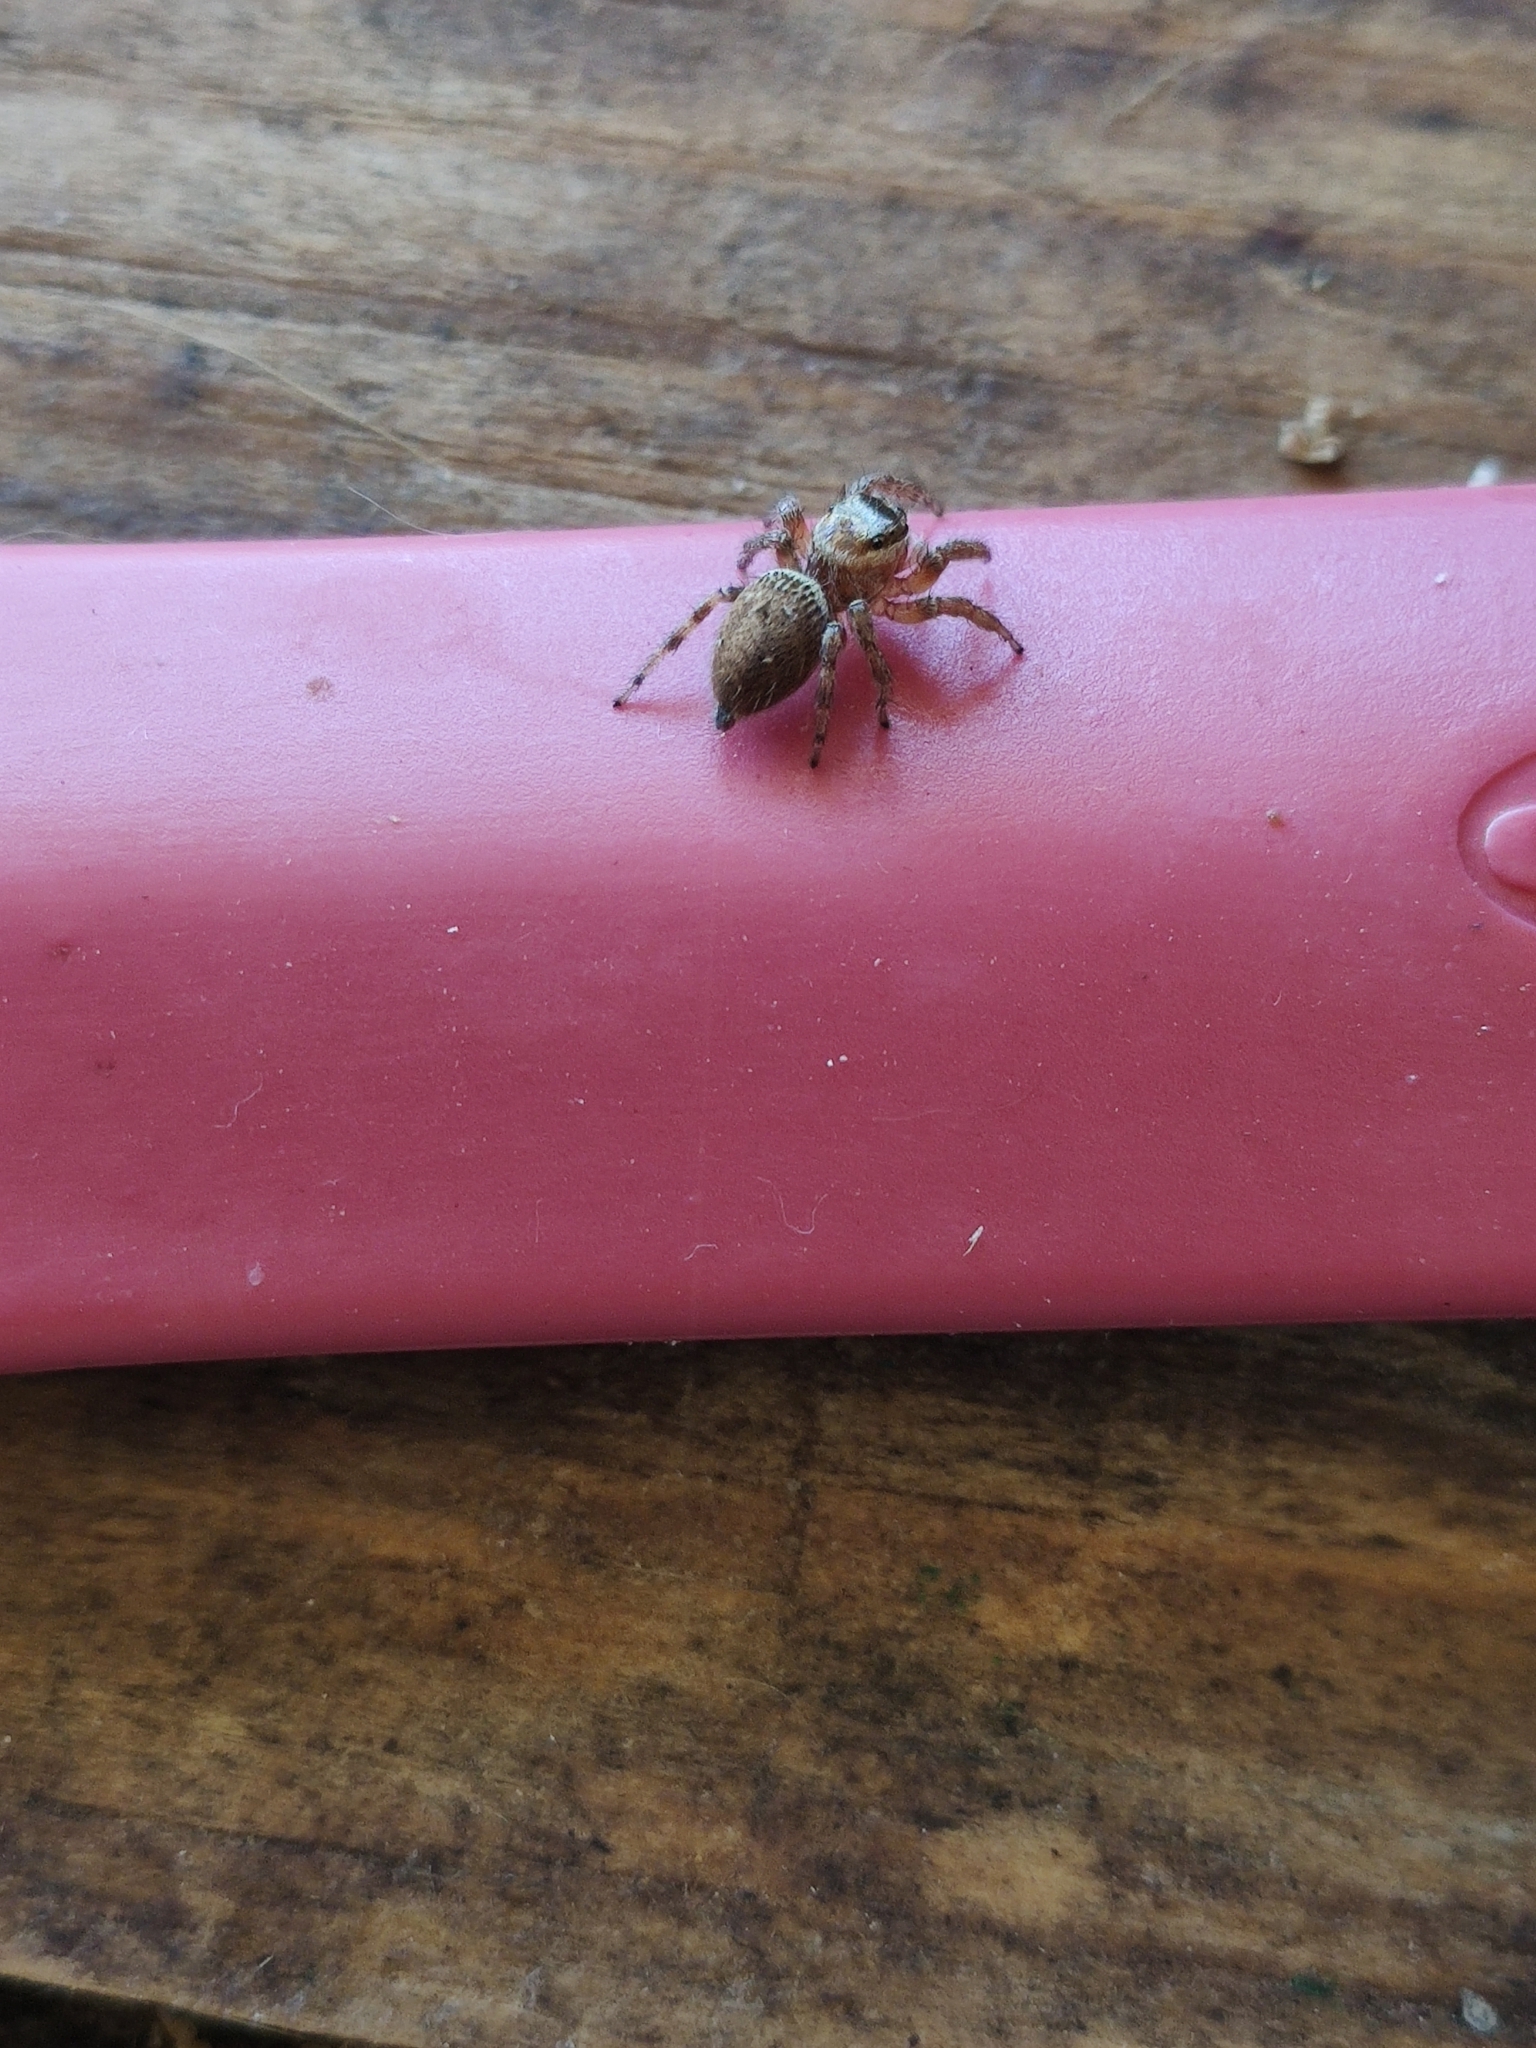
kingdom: Animalia
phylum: Arthropoda
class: Arachnida
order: Araneae
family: Salticidae
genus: Evarcha
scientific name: Evarcha jucunda
